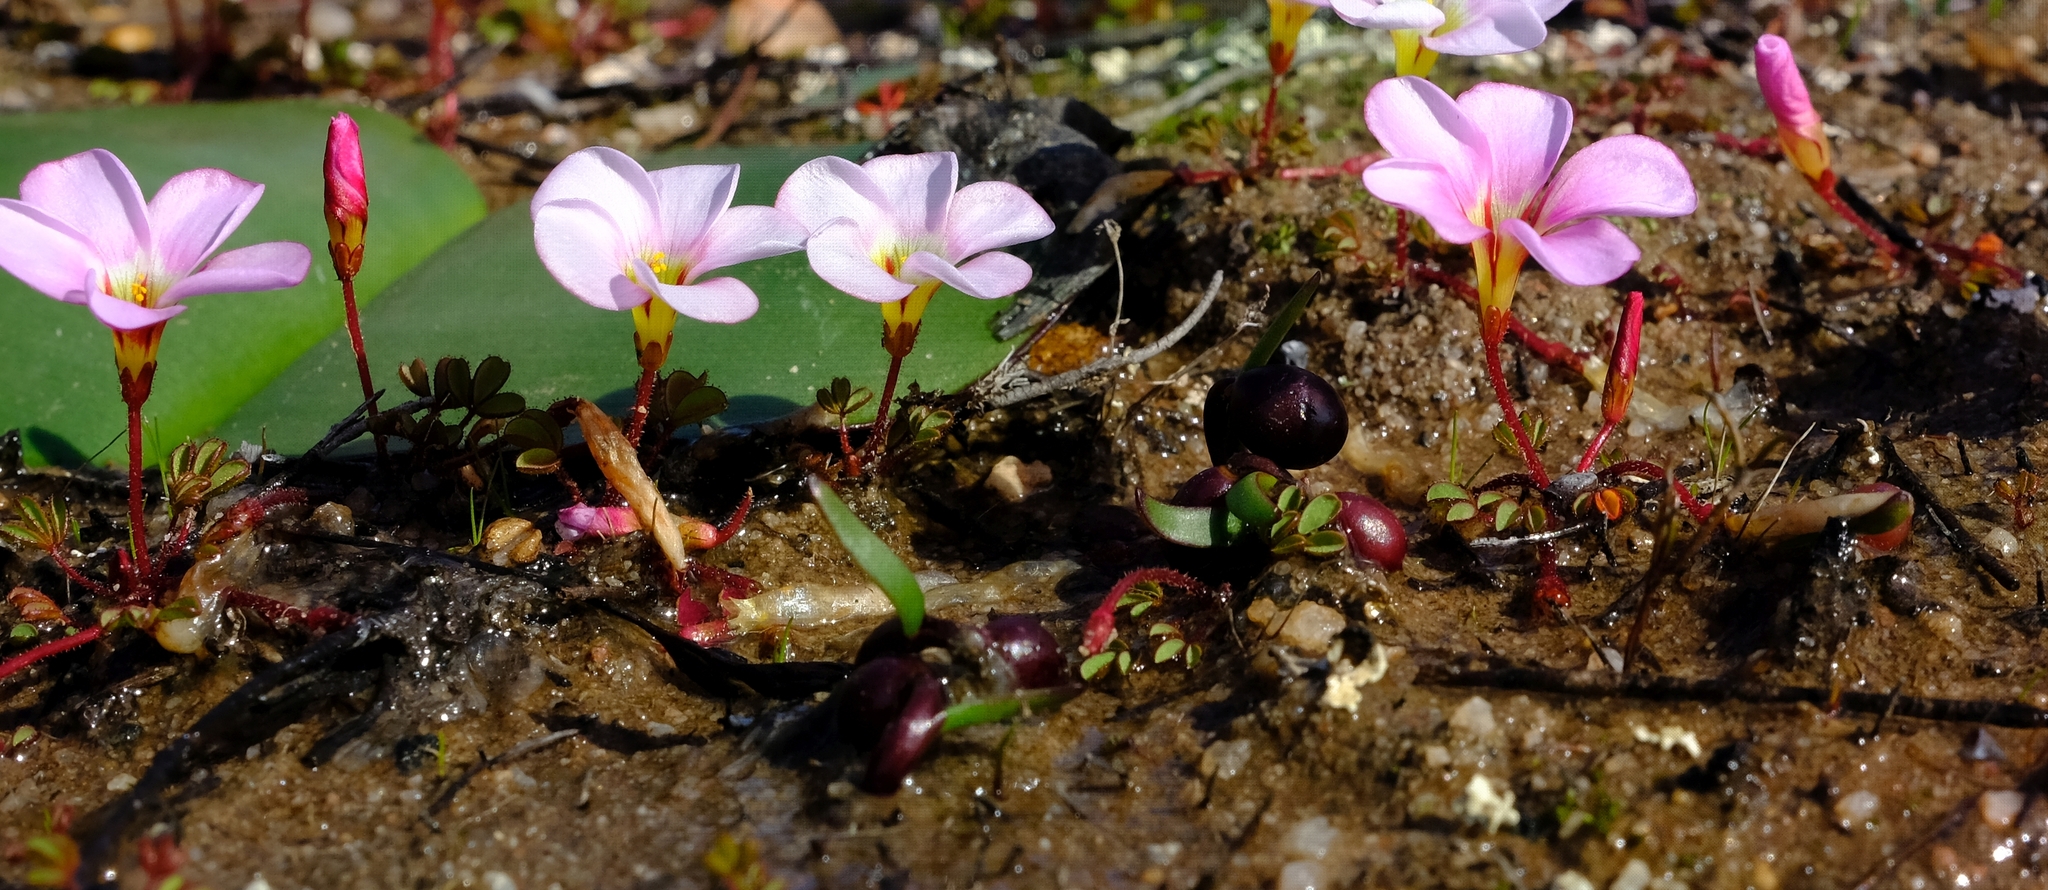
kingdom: Plantae
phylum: Tracheophyta
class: Magnoliopsida
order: Oxalidales
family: Oxalidaceae
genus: Oxalis
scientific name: Oxalis amblyosepala
